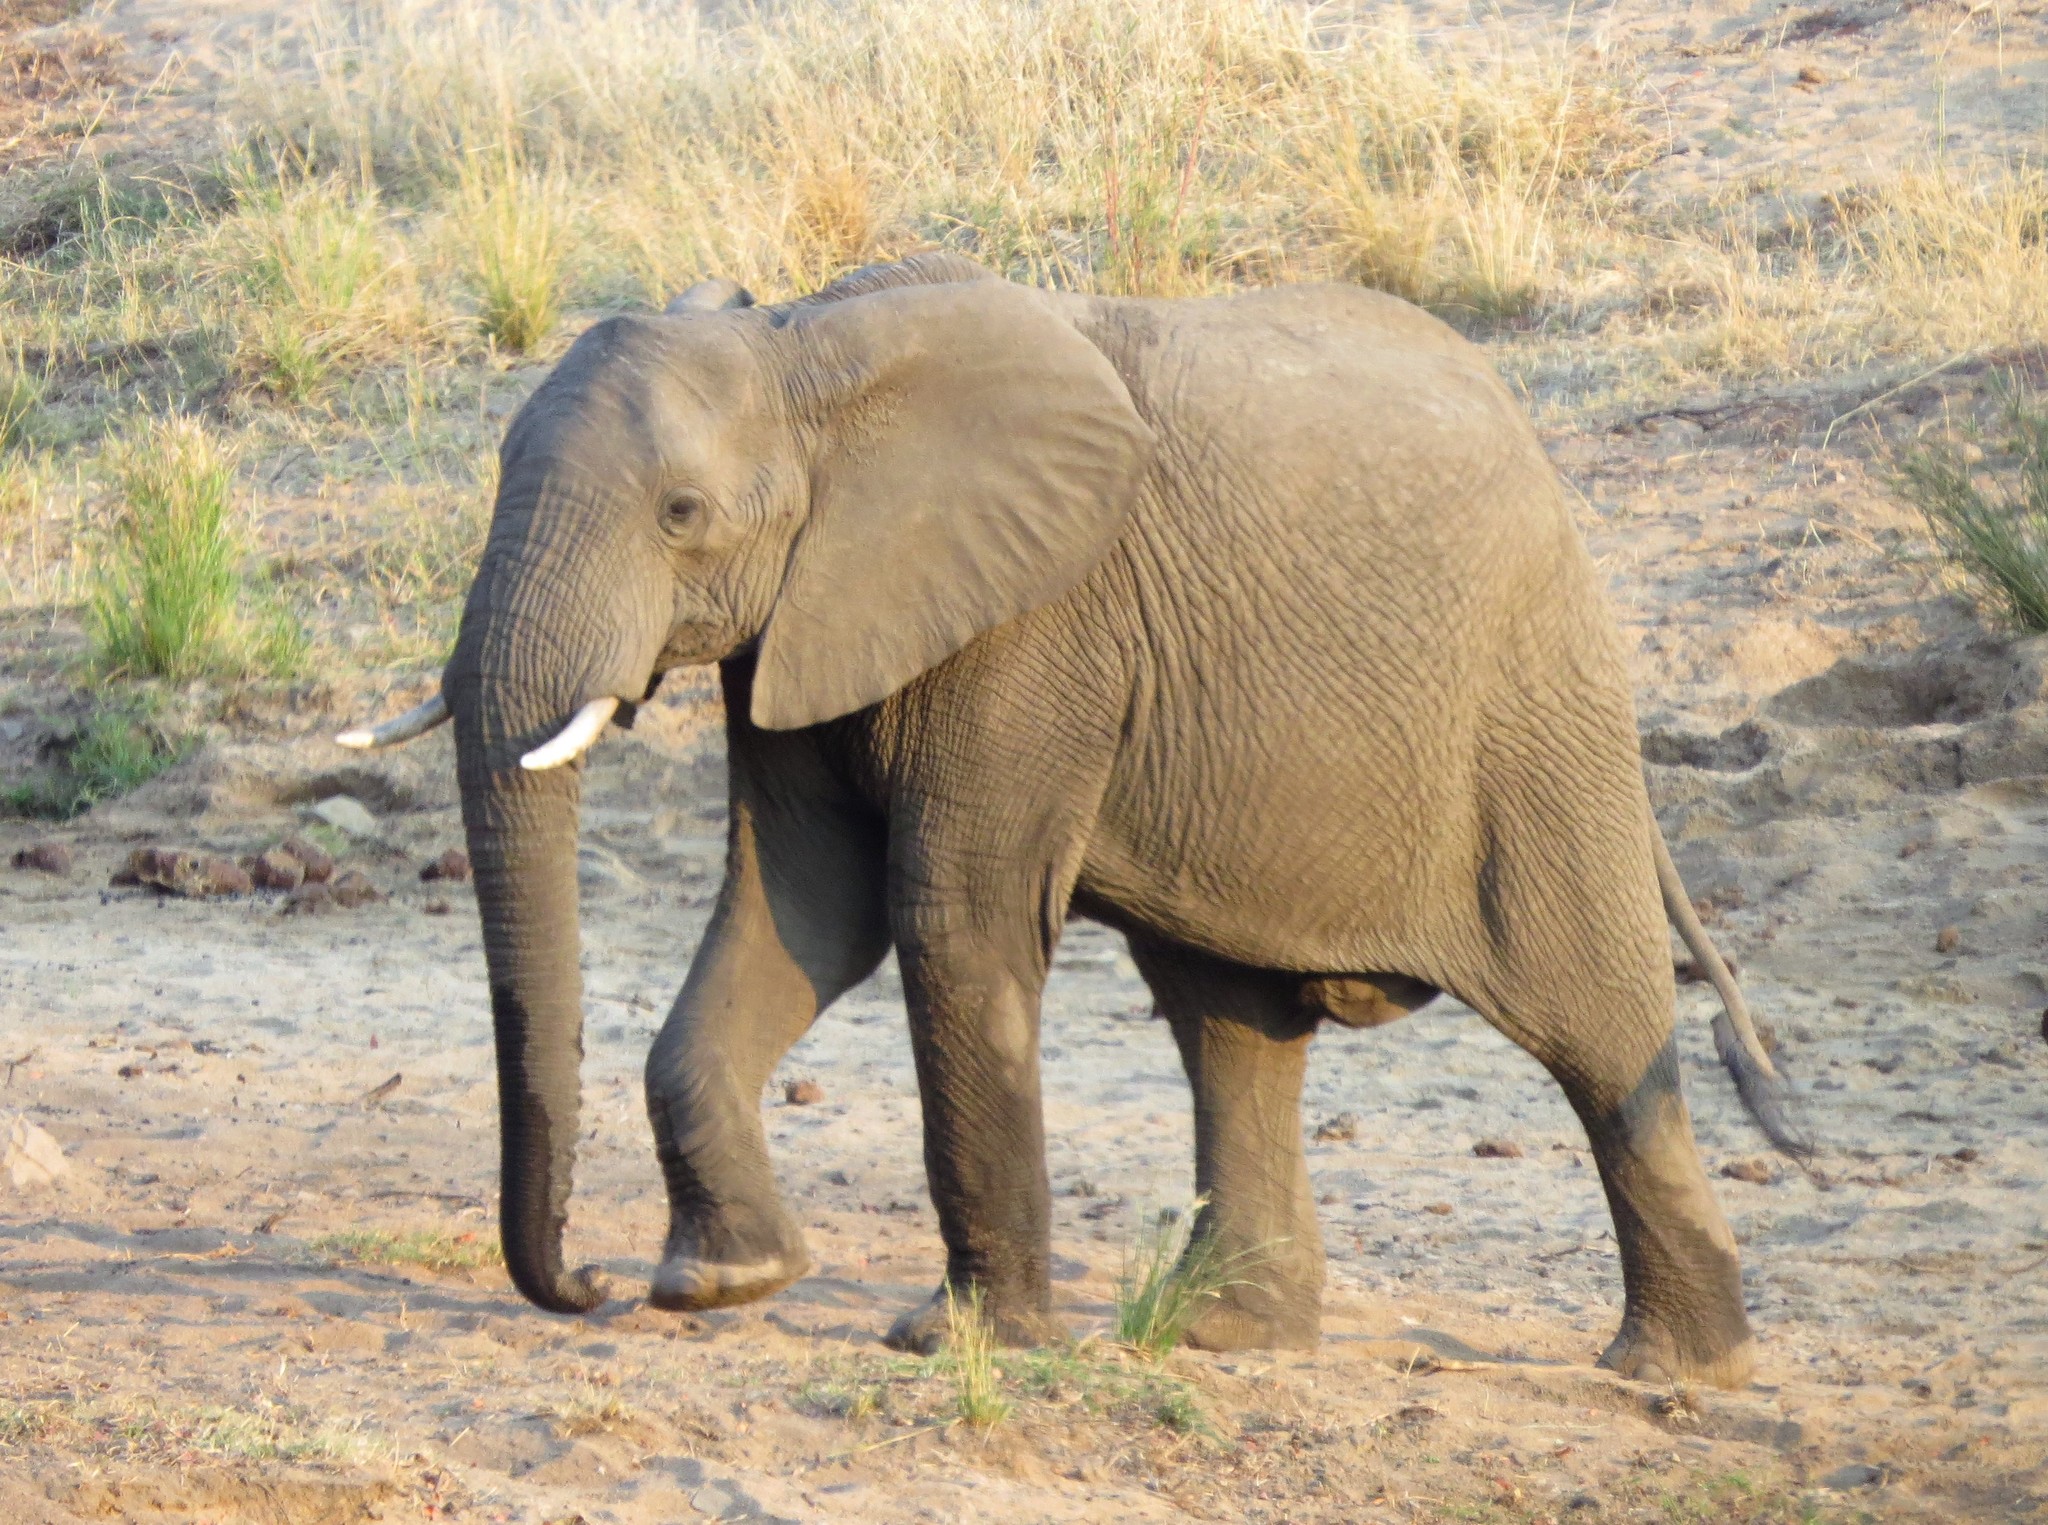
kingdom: Animalia
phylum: Chordata
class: Mammalia
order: Proboscidea
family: Elephantidae
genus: Loxodonta
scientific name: Loxodonta africana
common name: African elephant
